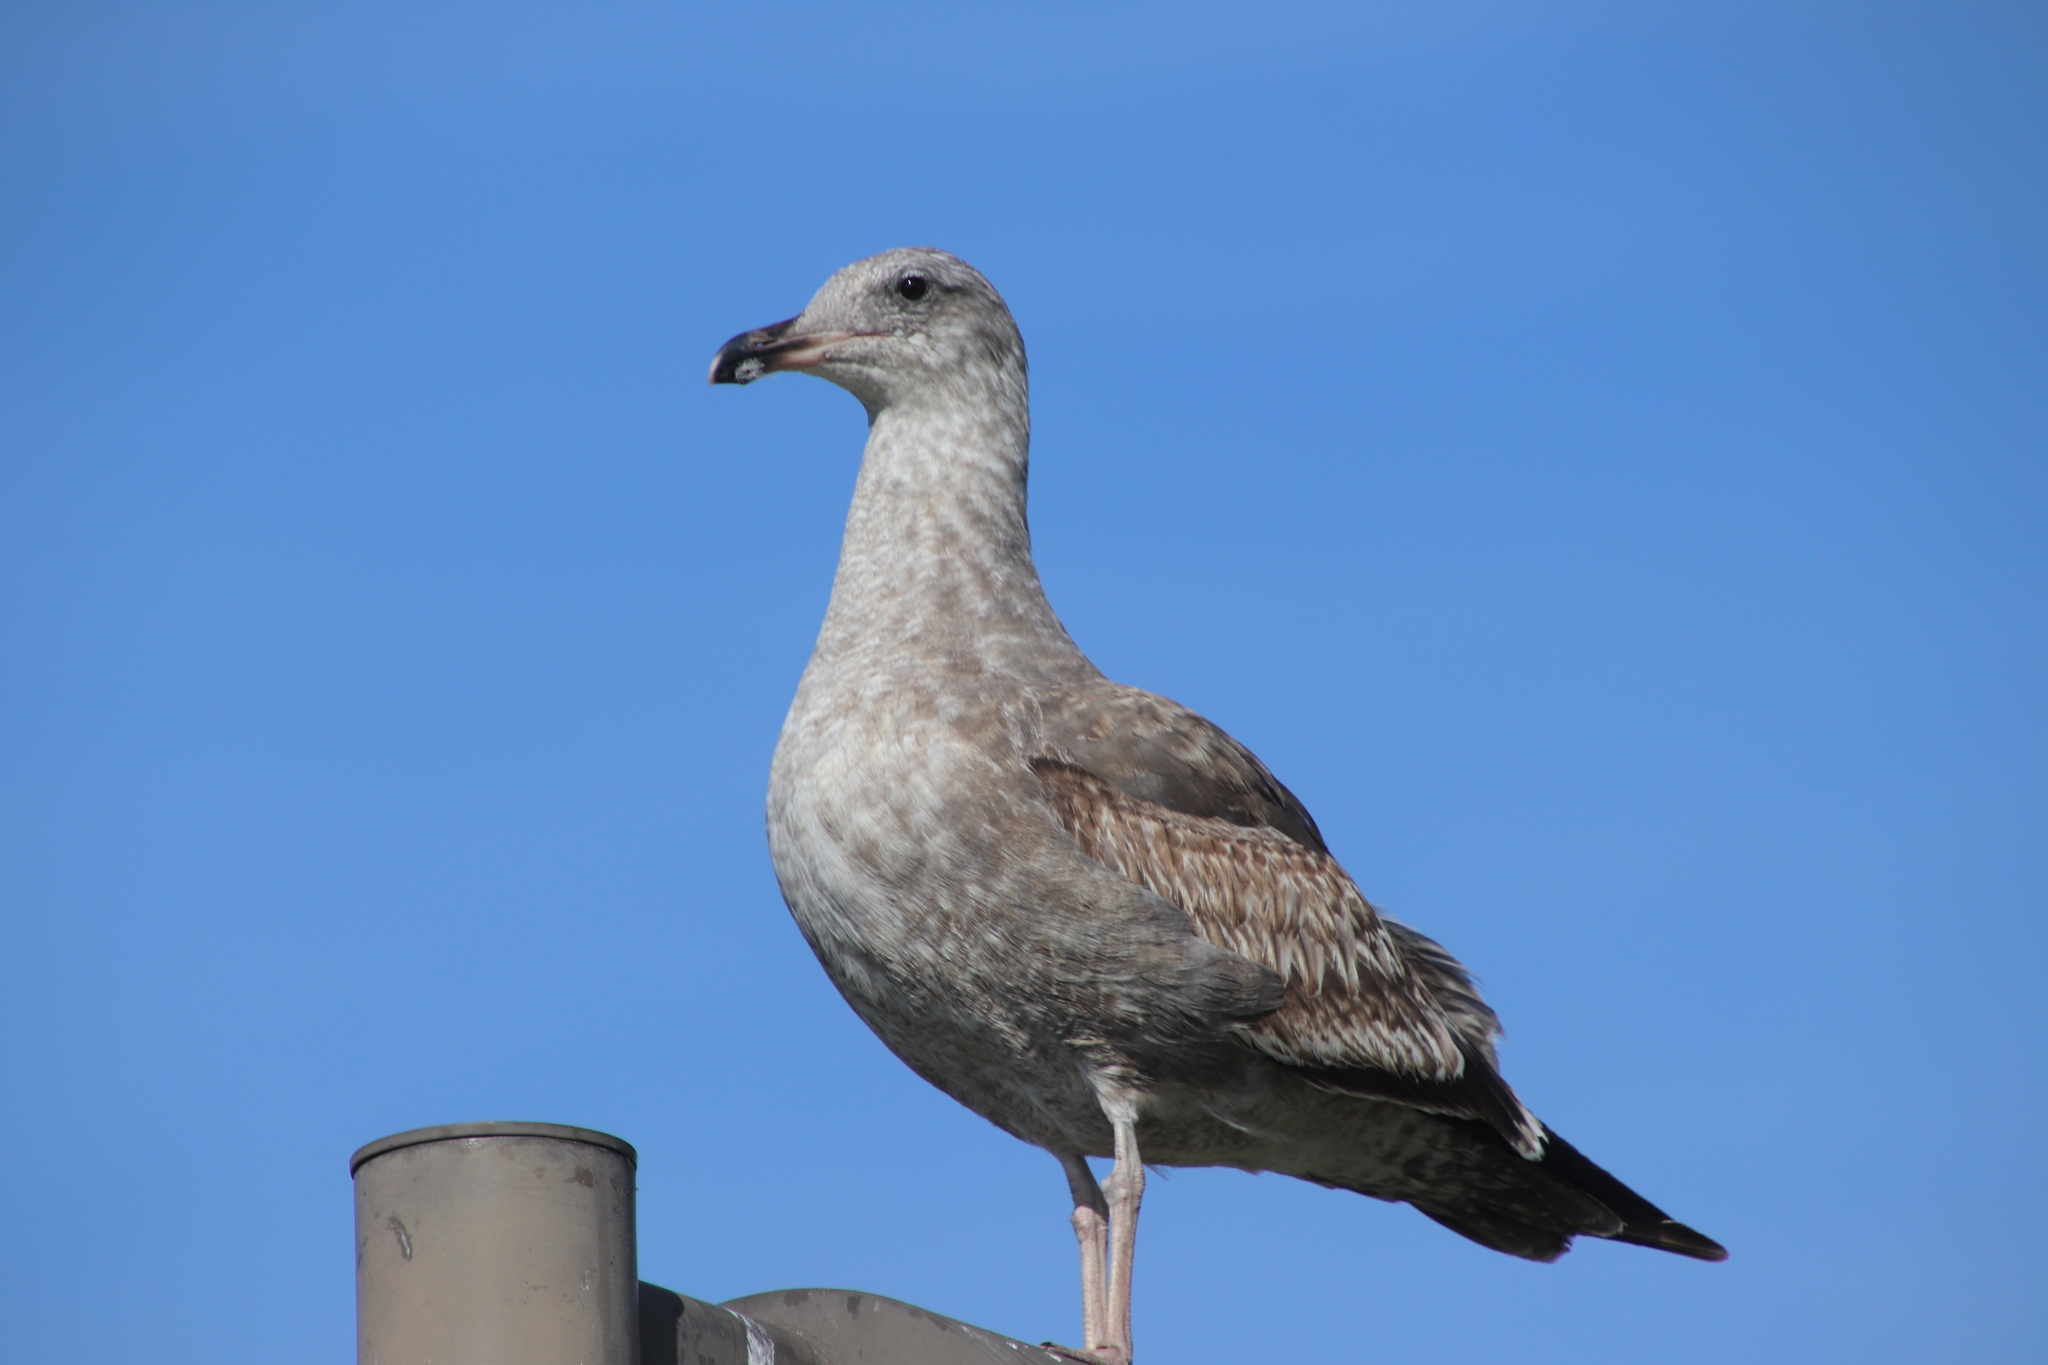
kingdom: Animalia
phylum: Chordata
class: Aves
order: Charadriiformes
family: Laridae
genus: Larus
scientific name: Larus occidentalis
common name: Western gull
